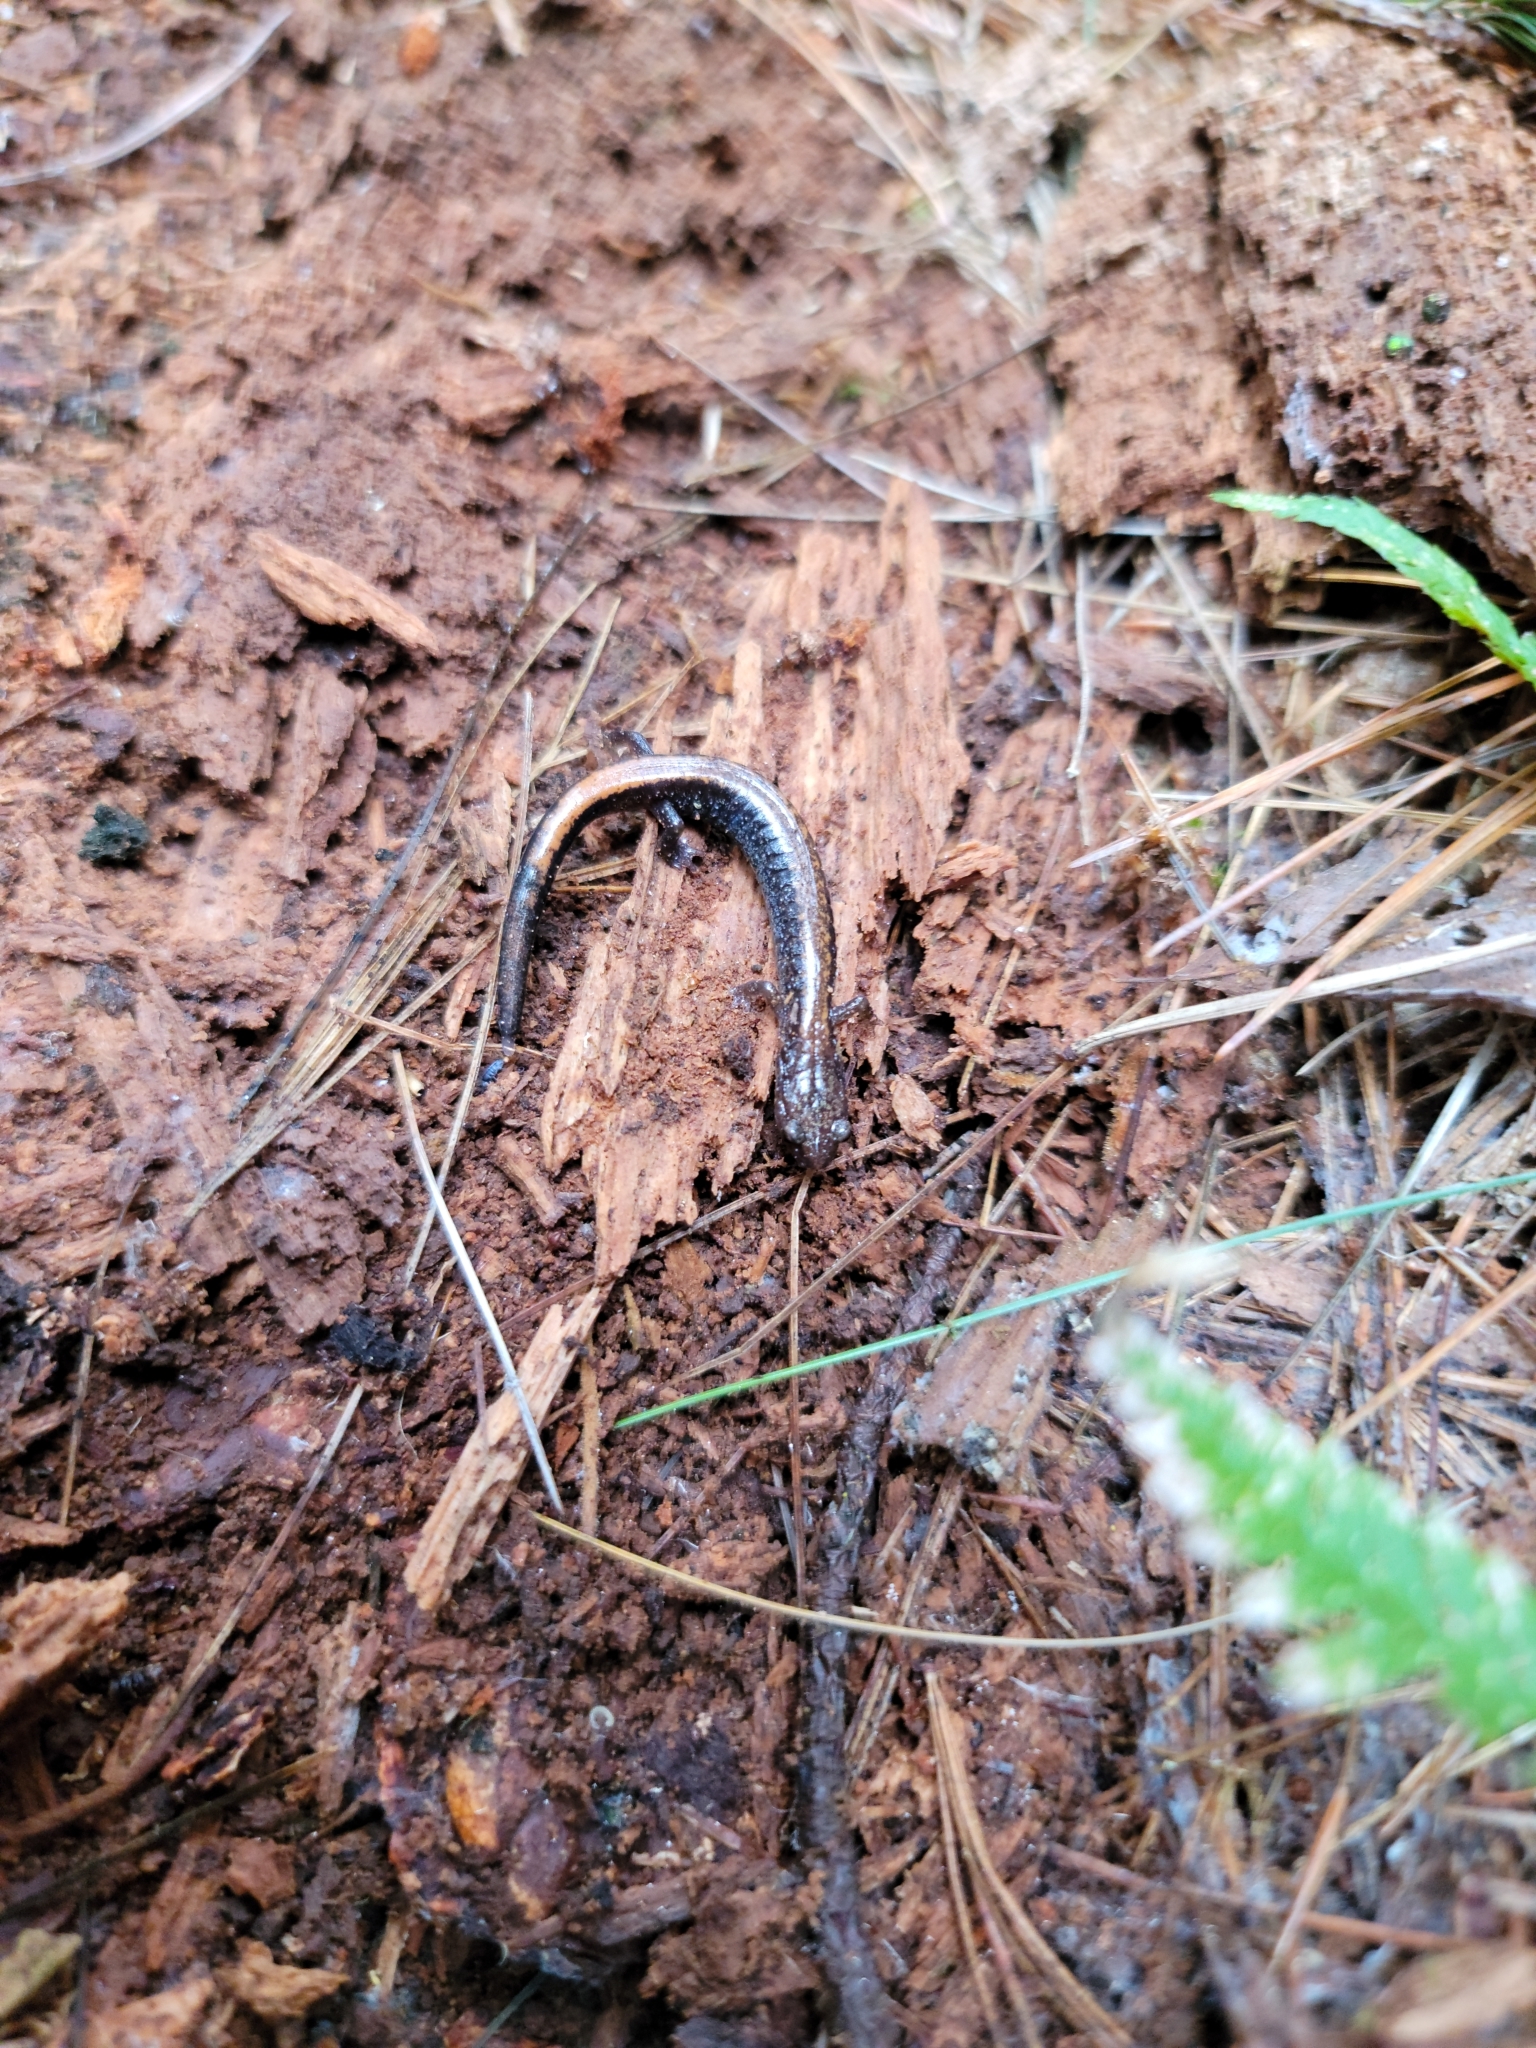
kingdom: Animalia
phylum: Chordata
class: Amphibia
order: Caudata
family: Plethodontidae
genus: Plethodon
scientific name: Plethodon cinereus
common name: Redback salamander
